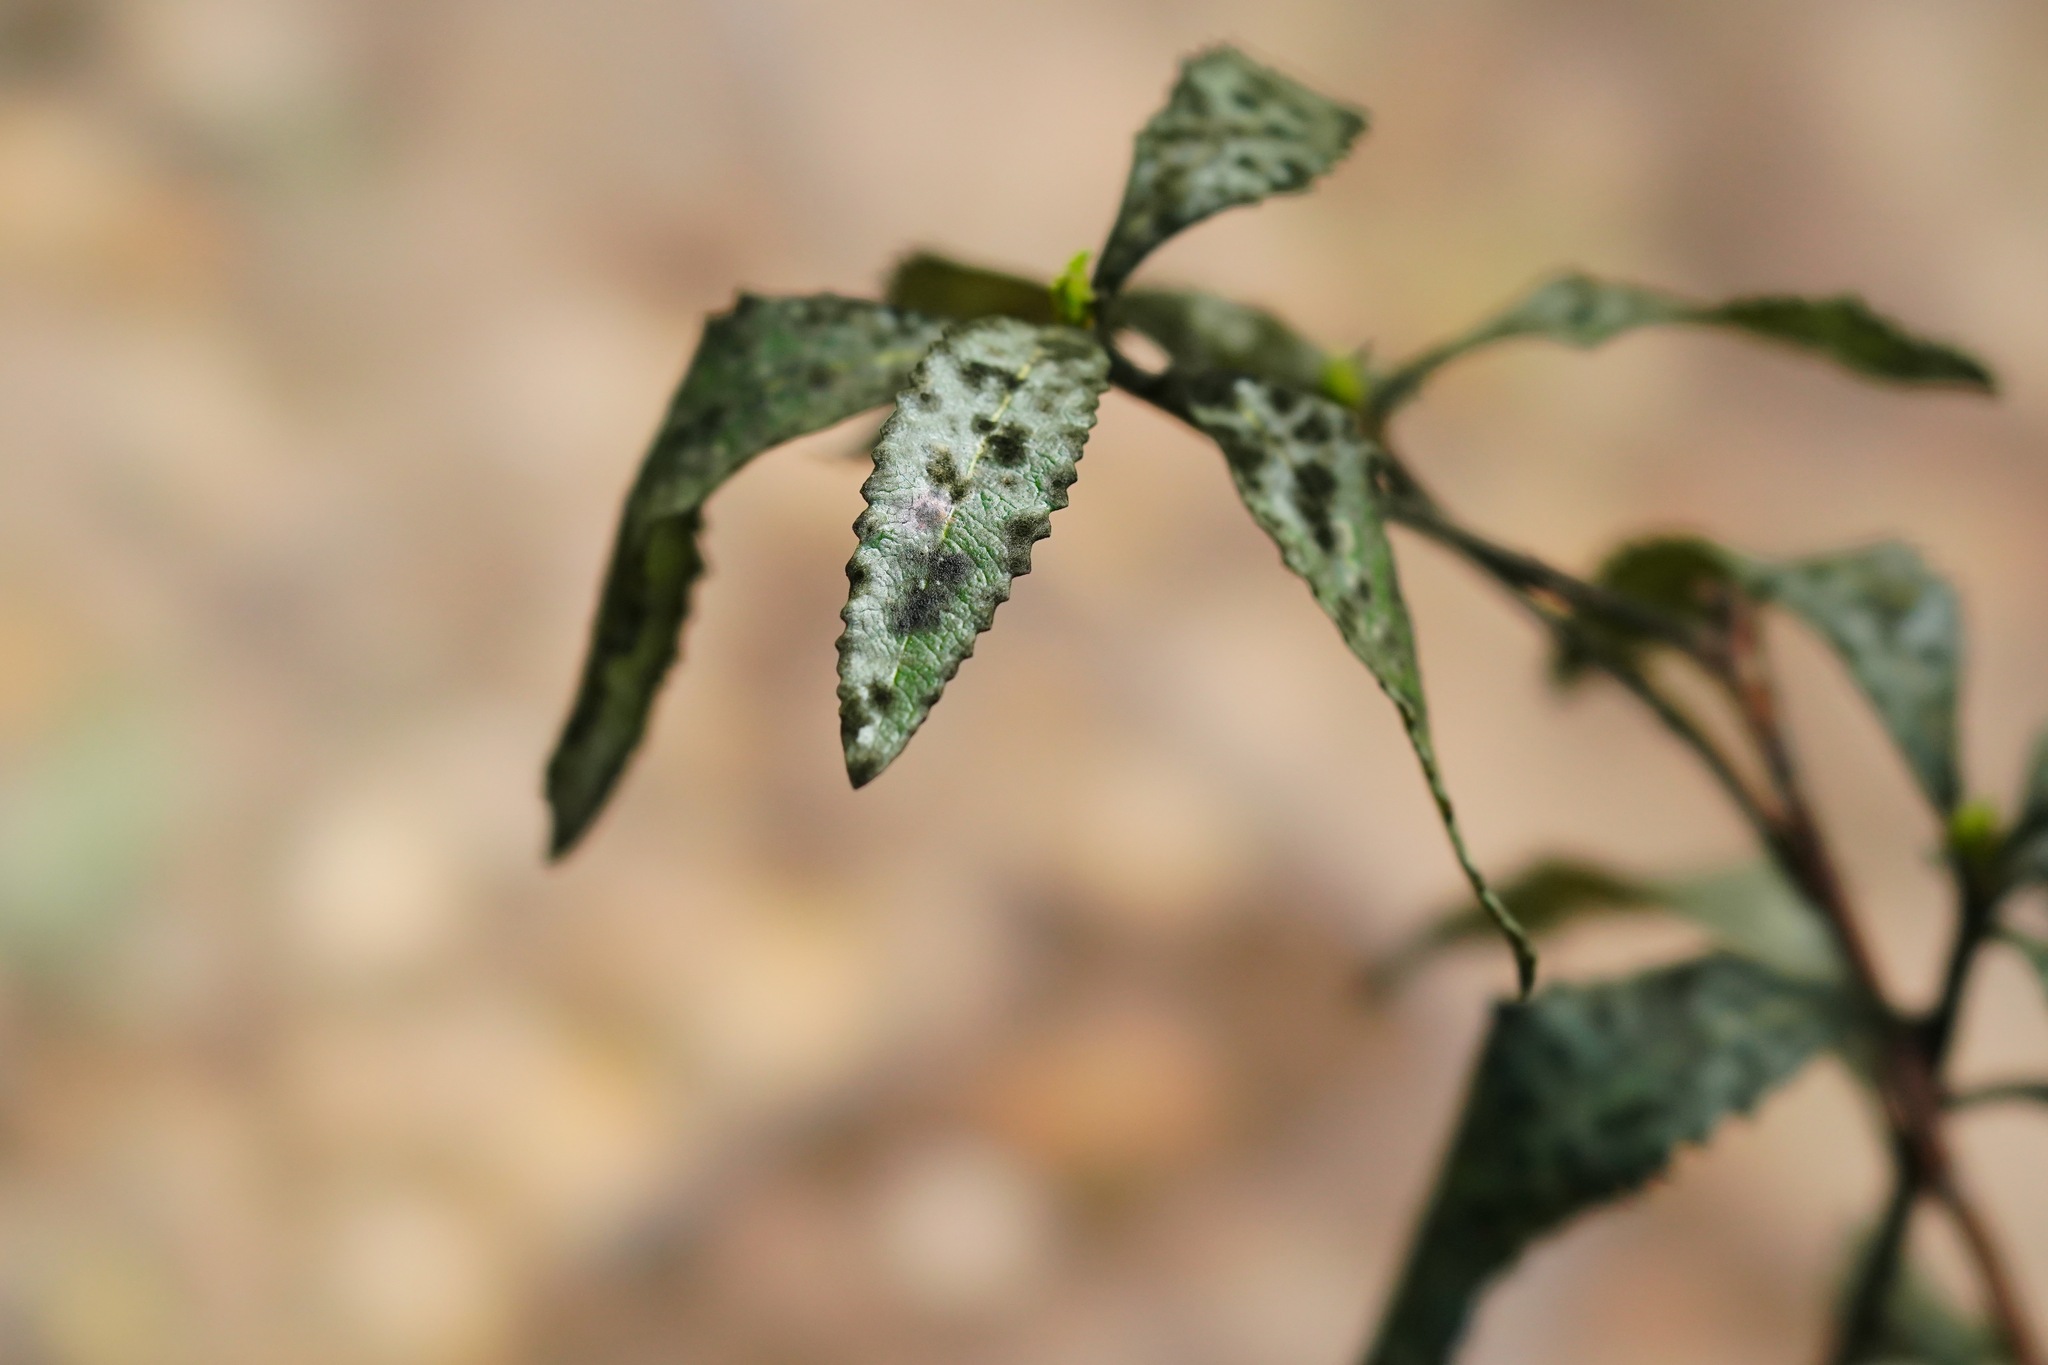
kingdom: Plantae
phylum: Tracheophyta
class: Magnoliopsida
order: Boraginales
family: Namaceae
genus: Eriodictyon
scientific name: Eriodictyon californicum
